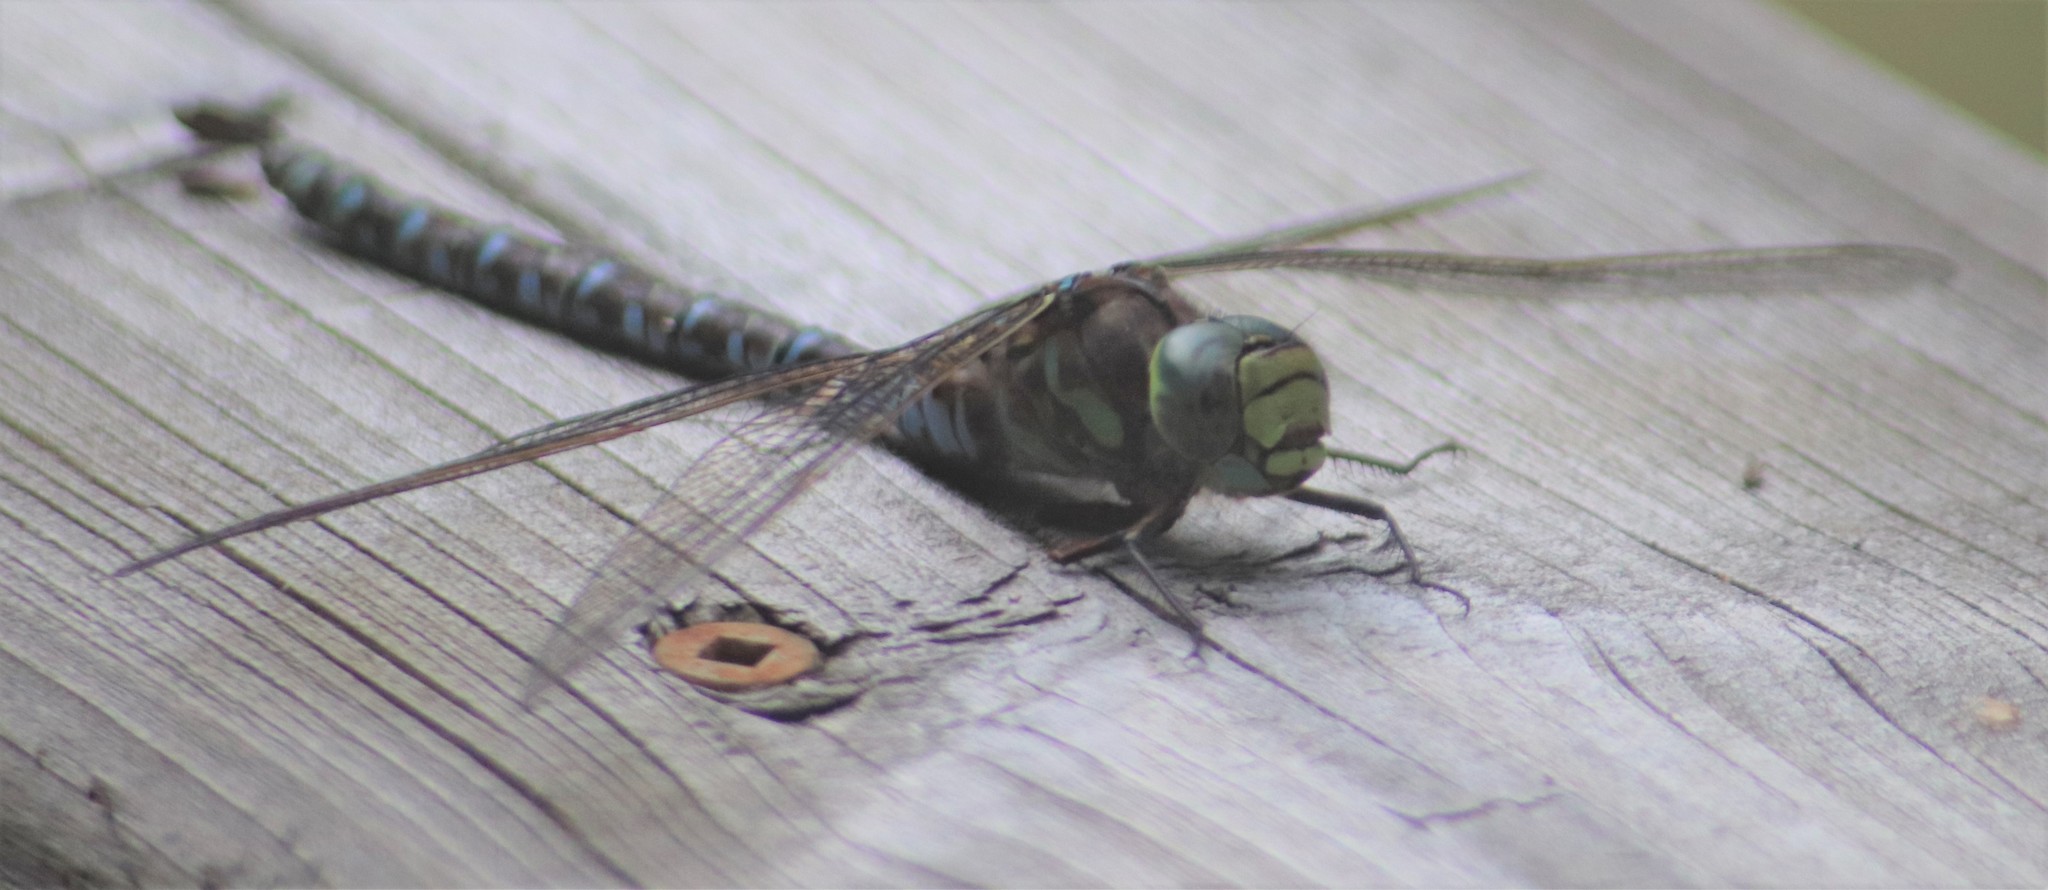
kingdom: Animalia
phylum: Arthropoda
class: Insecta
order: Odonata
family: Aeshnidae
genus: Aeshna
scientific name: Aeshna eremita
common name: Lake darner
